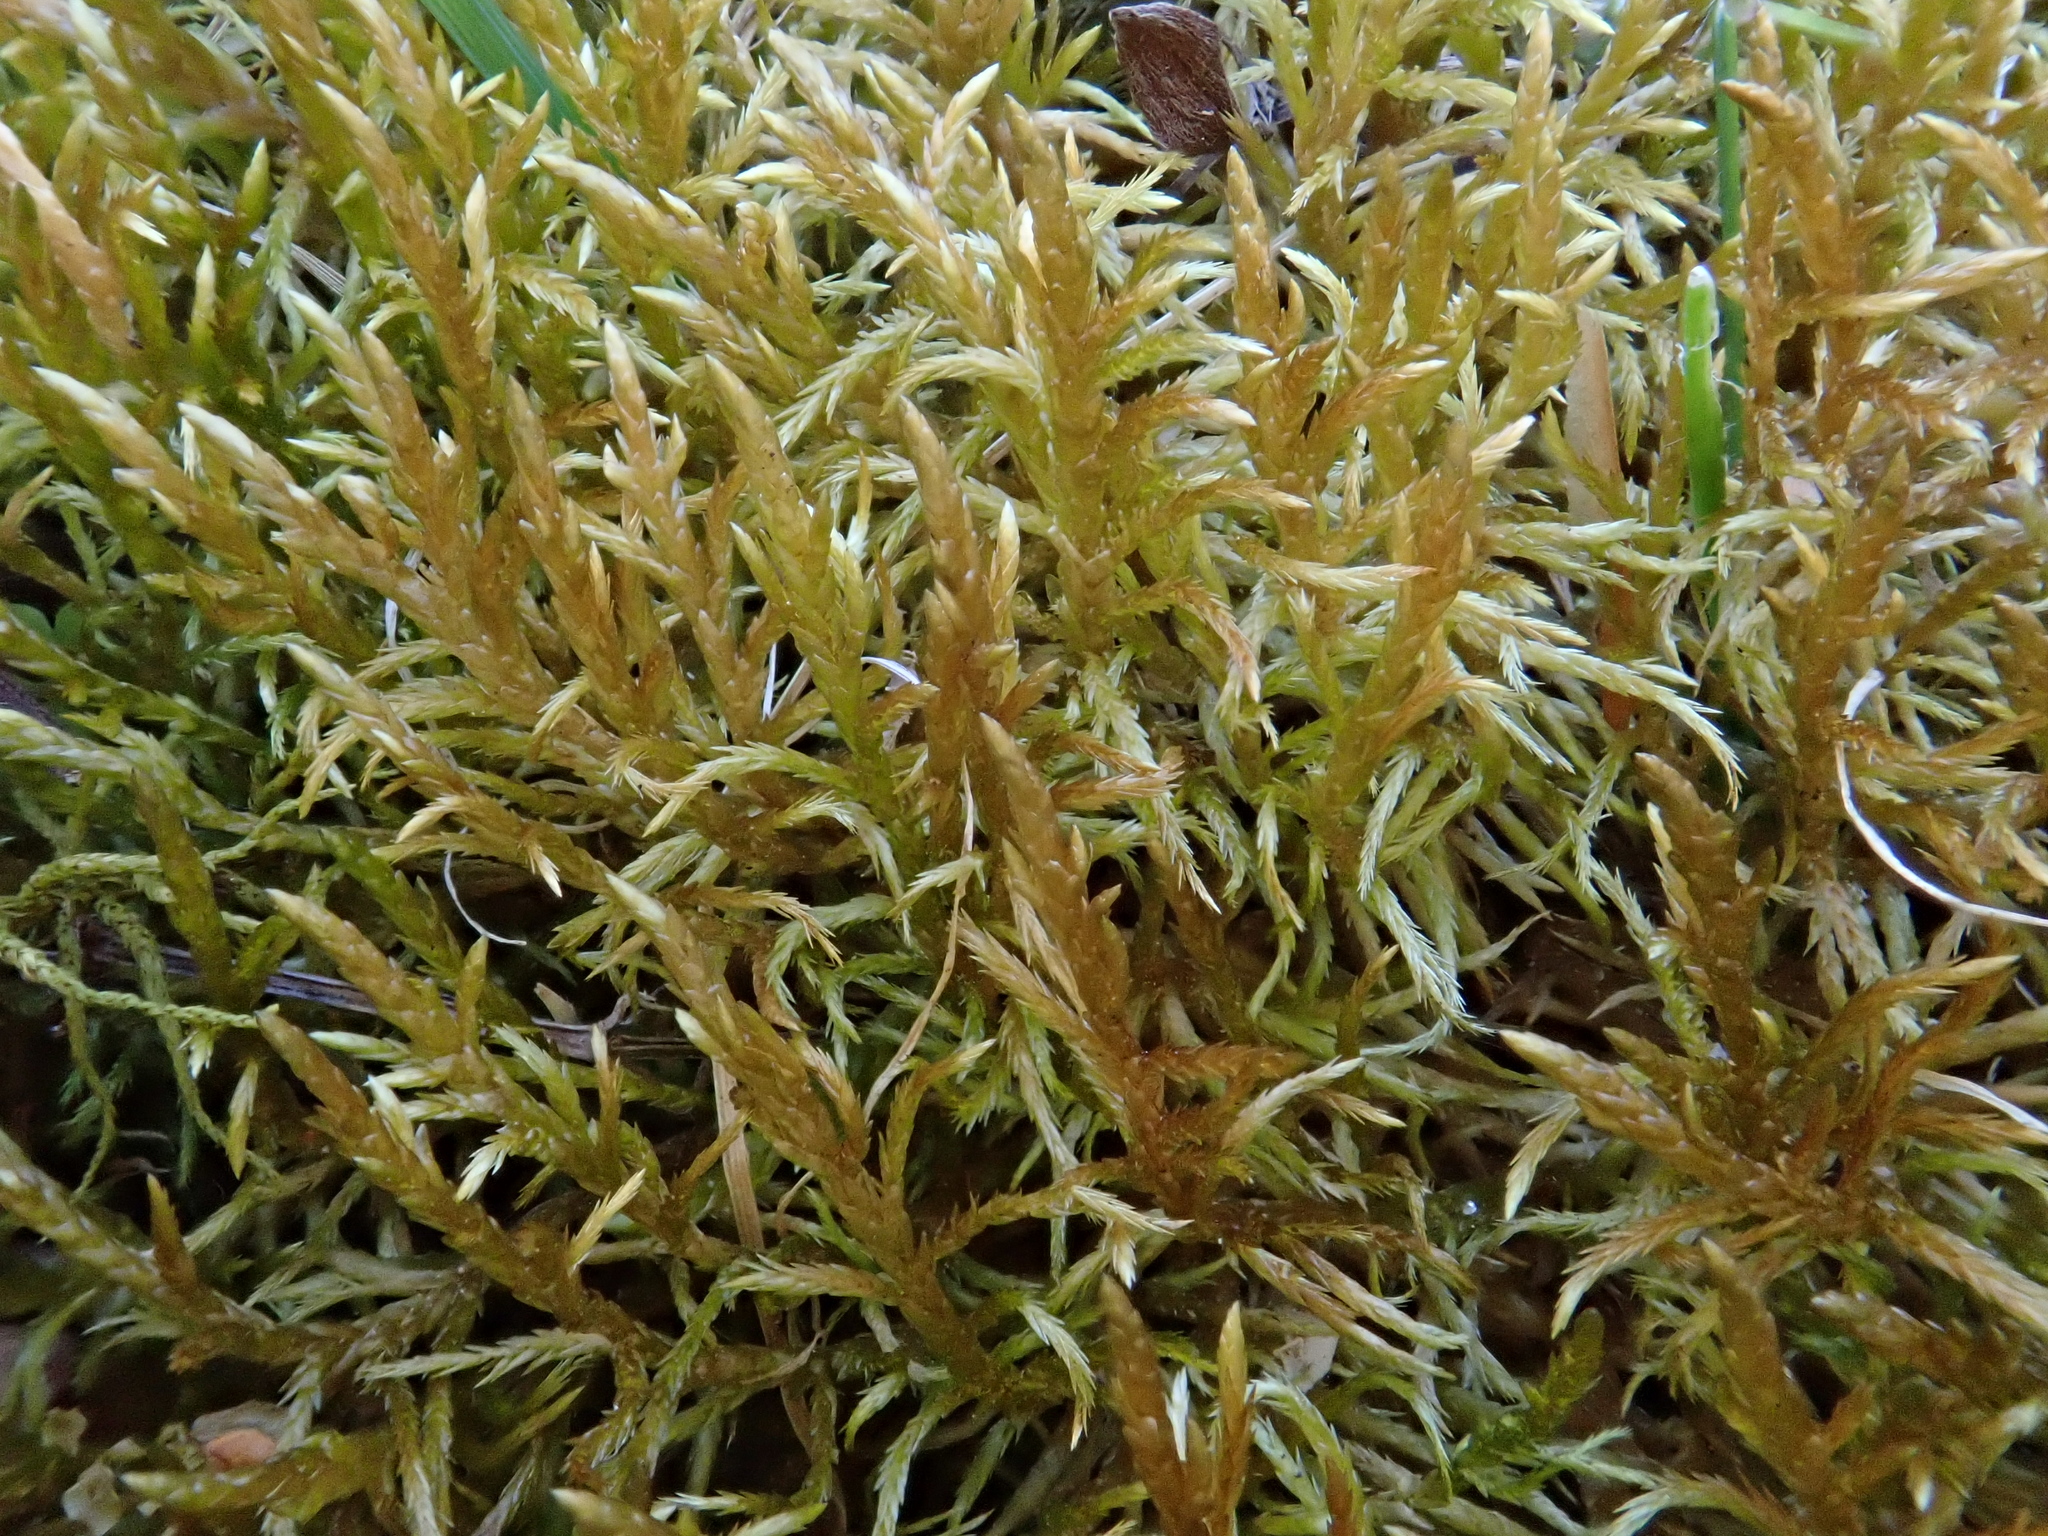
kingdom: Plantae
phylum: Bryophyta
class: Bryopsida
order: Hypnales
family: Entodontaceae
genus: Entodon
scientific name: Entodon concinnus
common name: Montagne's cylinder-moss
